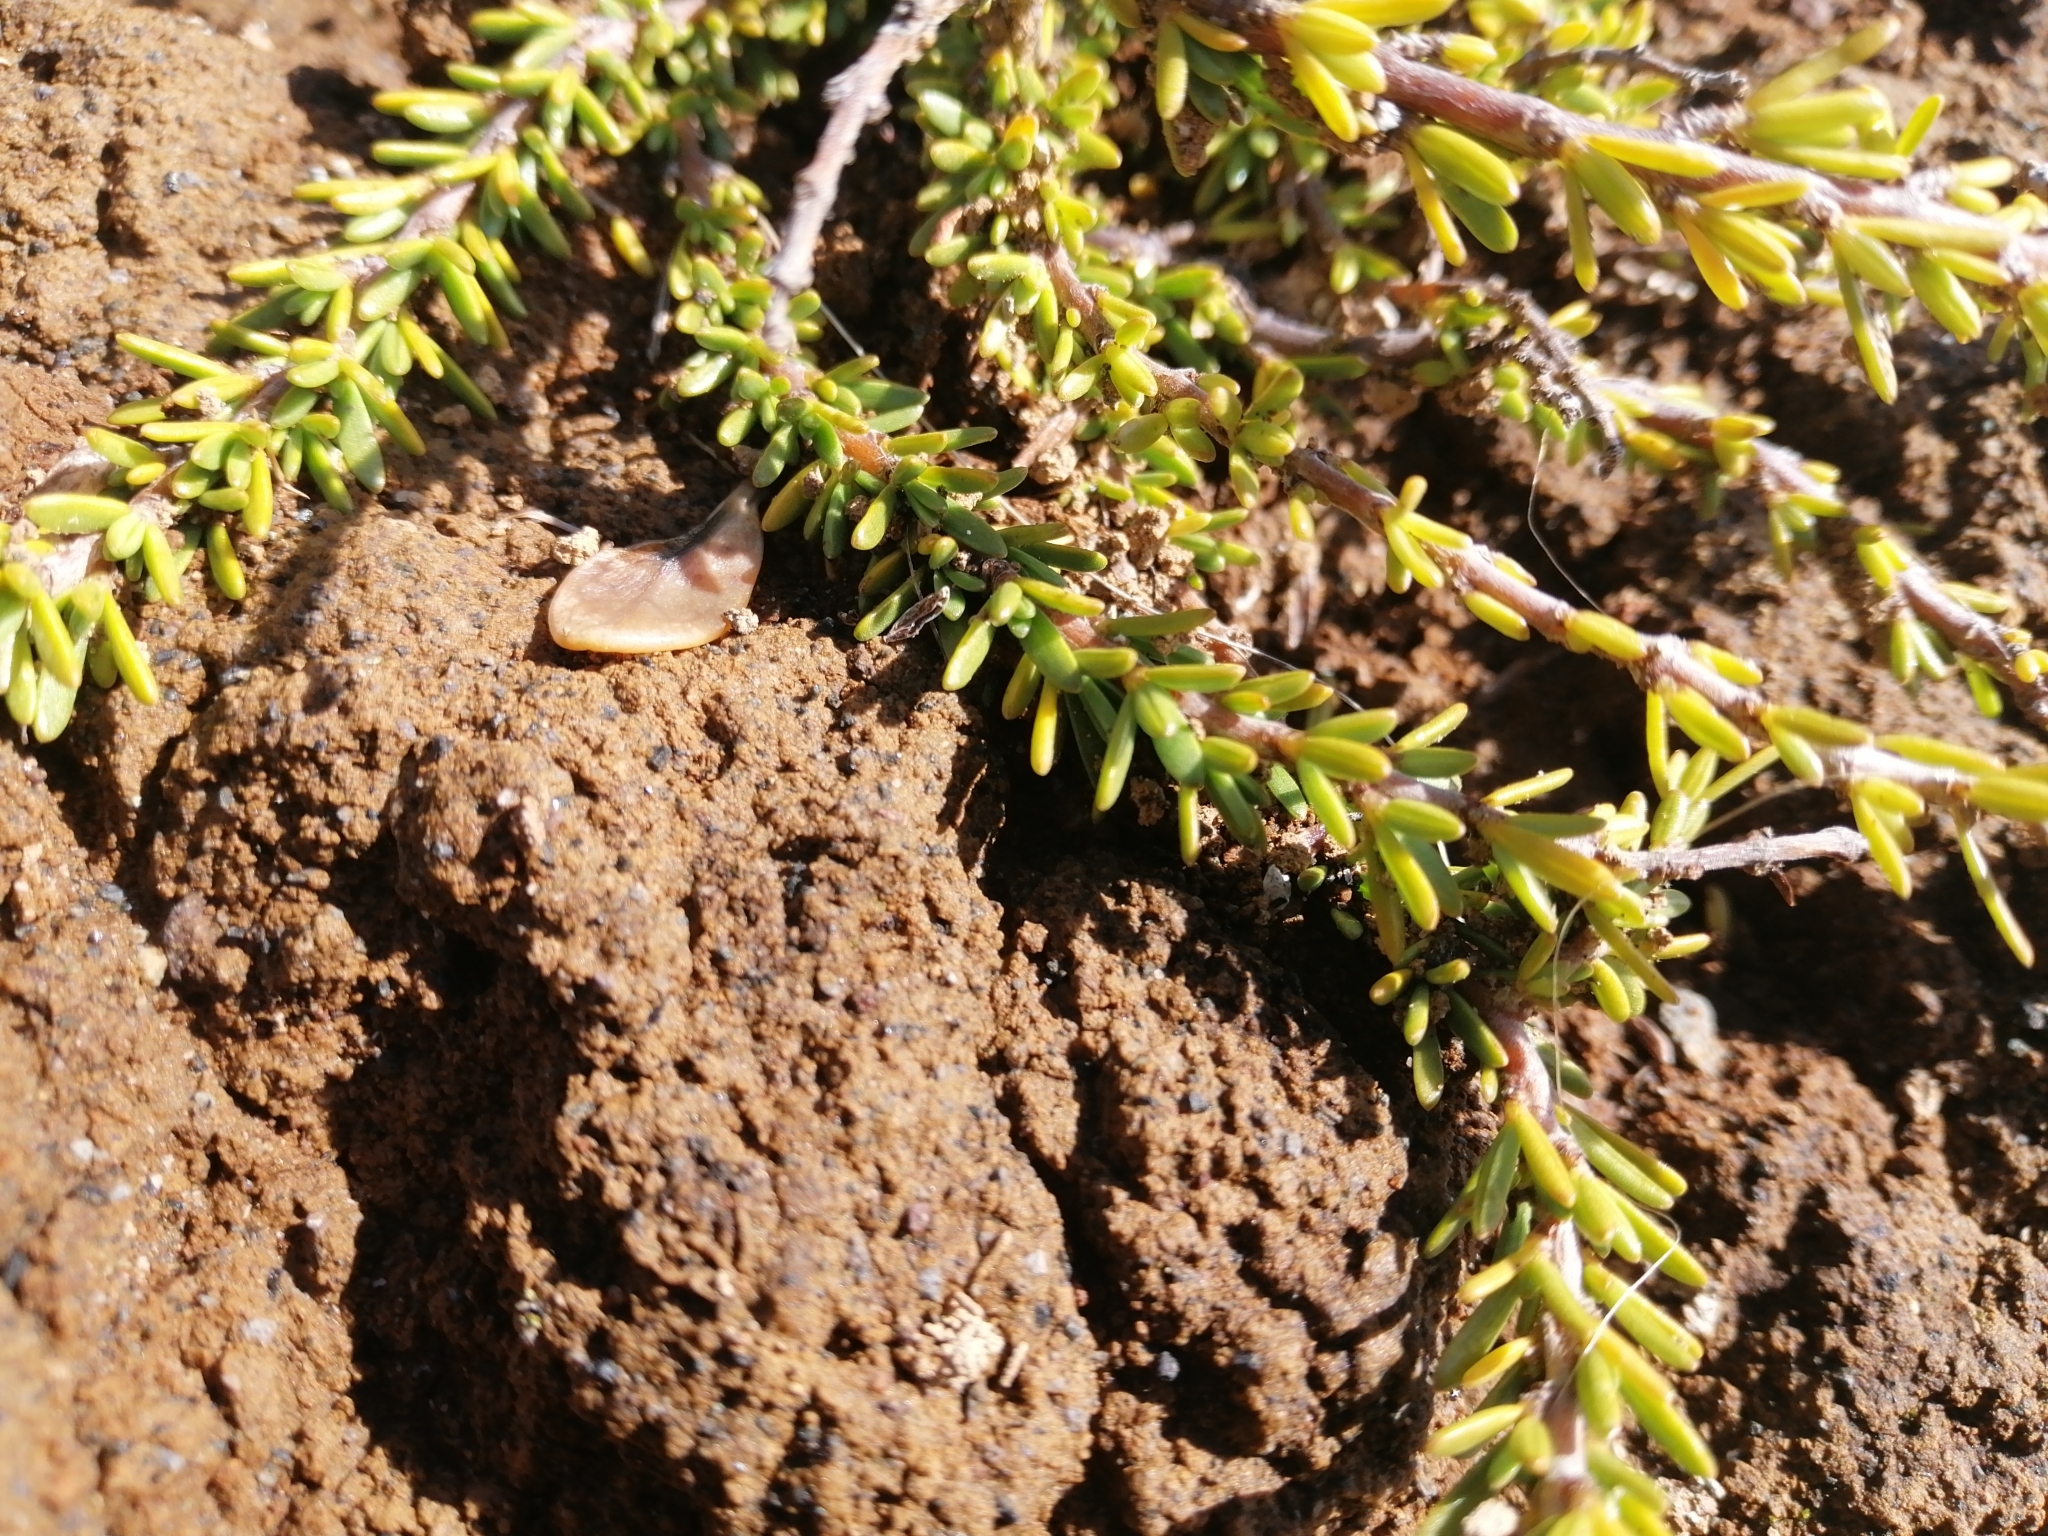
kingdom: Plantae
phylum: Tracheophyta
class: Magnoliopsida
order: Gentianales
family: Rubiaceae
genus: Coprosma
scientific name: Coprosma acerosa
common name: Sand coprosma
